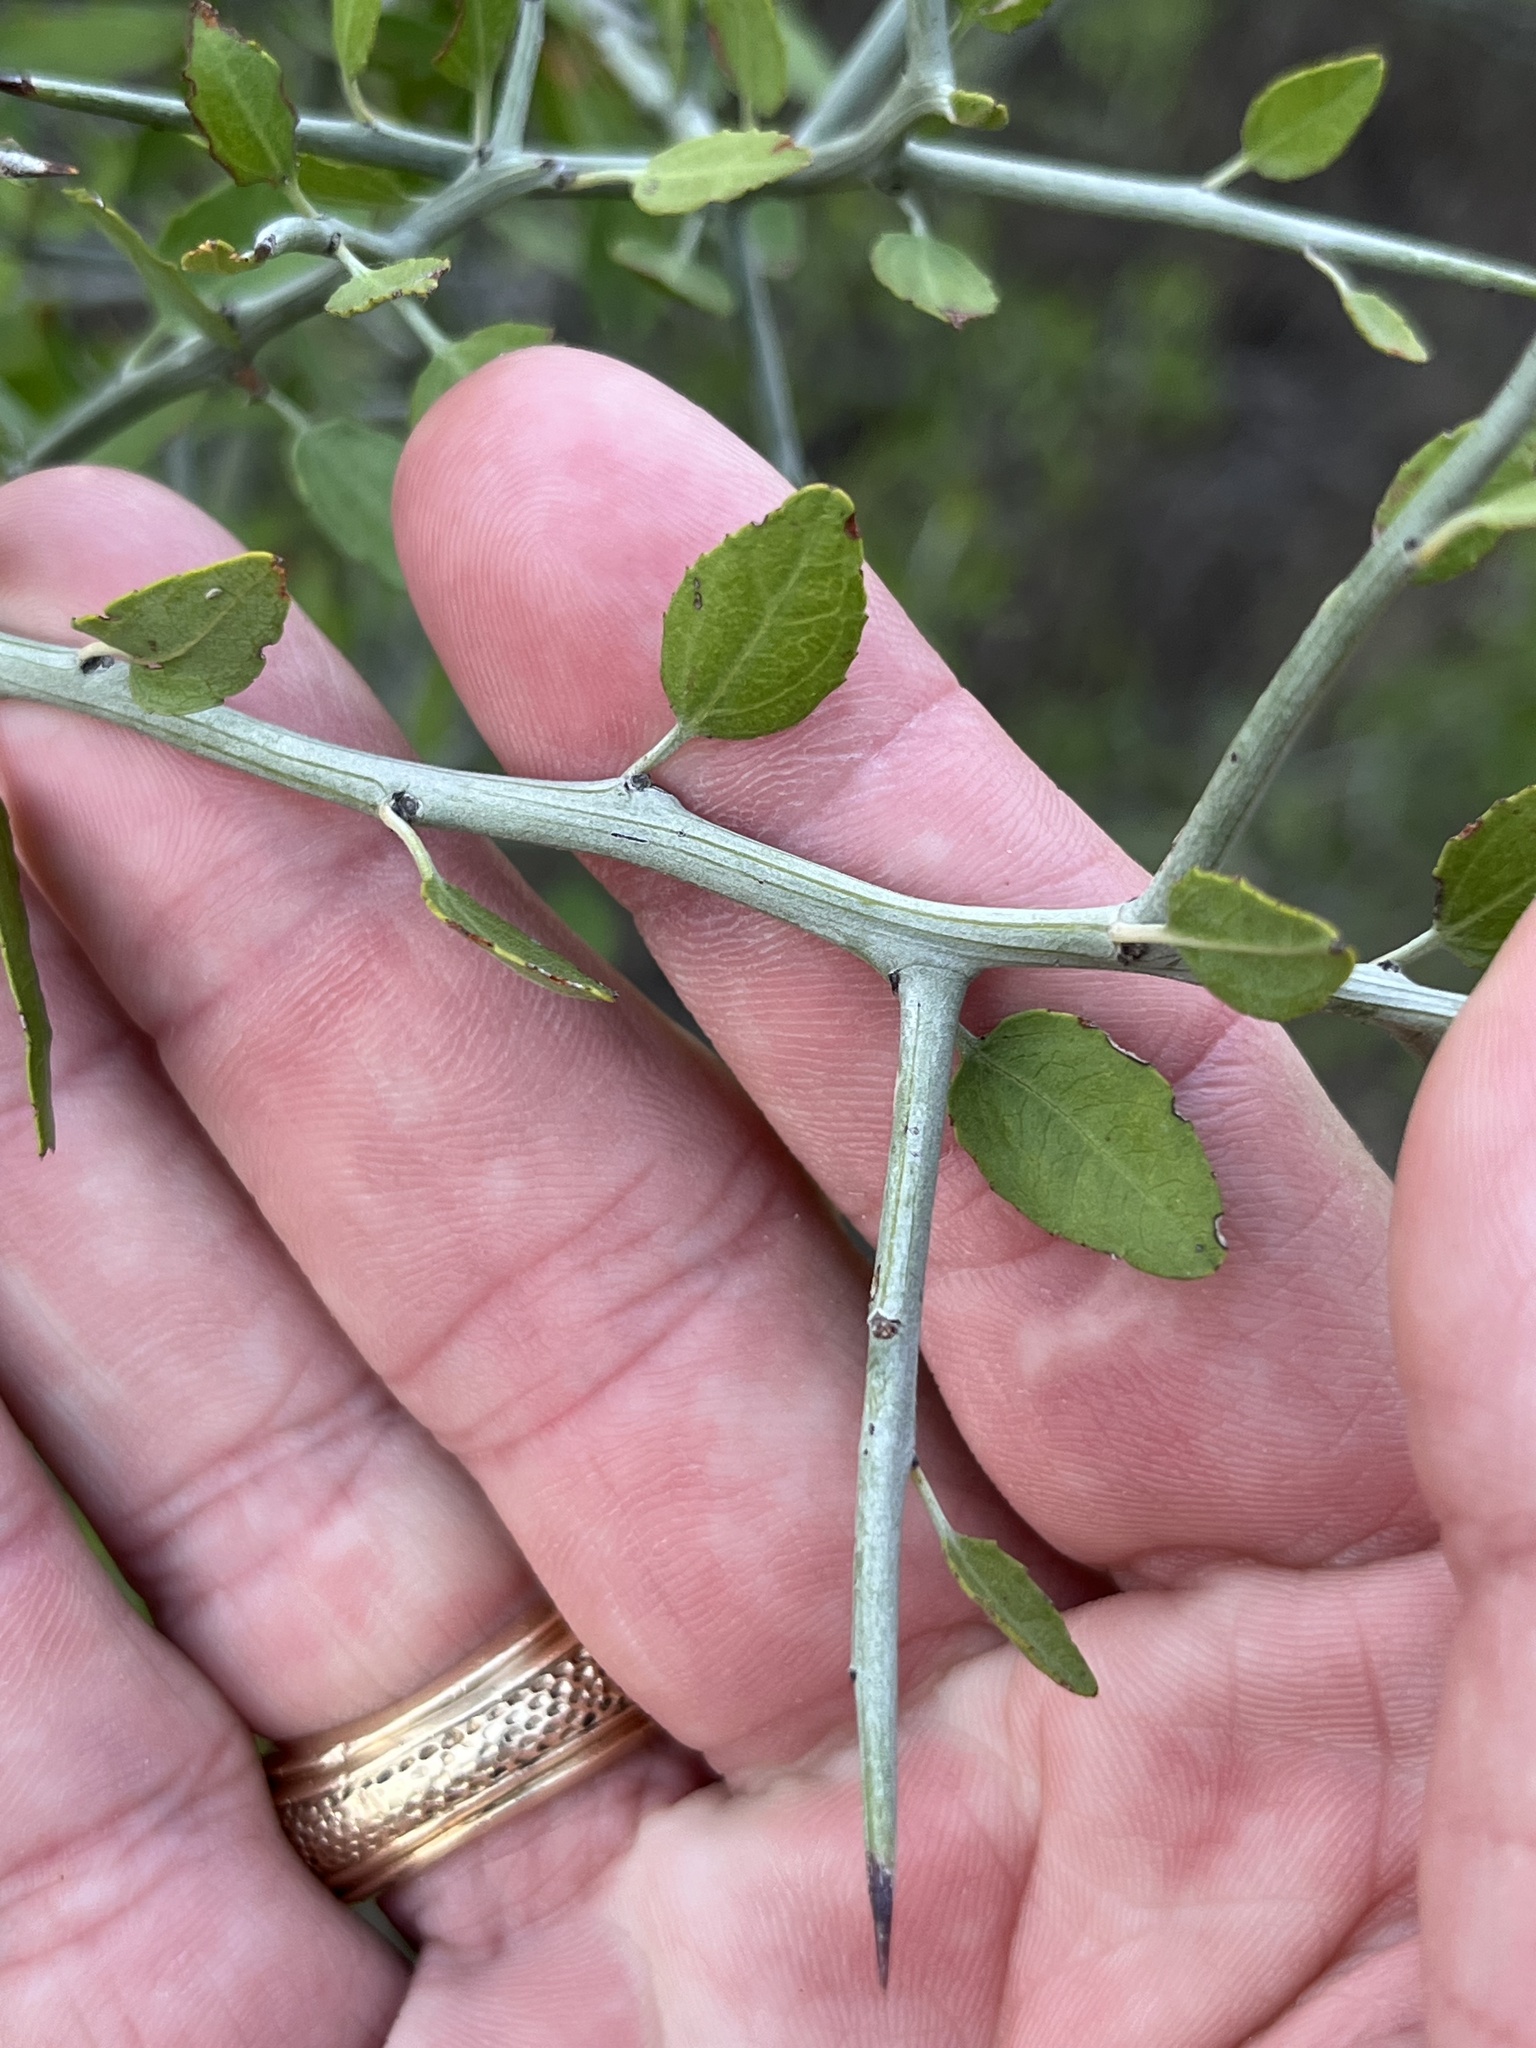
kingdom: Plantae
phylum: Tracheophyta
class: Magnoliopsida
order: Rosales
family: Rhamnaceae
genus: Sarcomphalus
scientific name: Sarcomphalus obtusifolius
